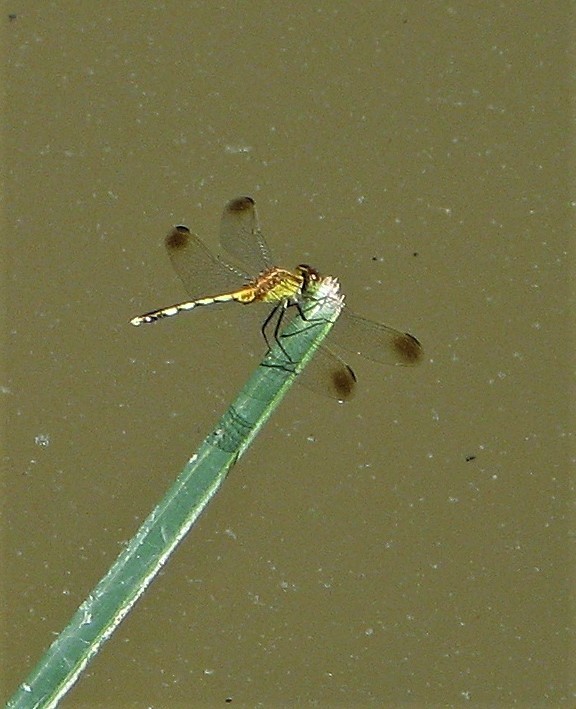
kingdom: Animalia
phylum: Arthropoda
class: Insecta
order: Odonata
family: Libellulidae
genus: Erythrodiplax
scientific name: Erythrodiplax atroterminata
